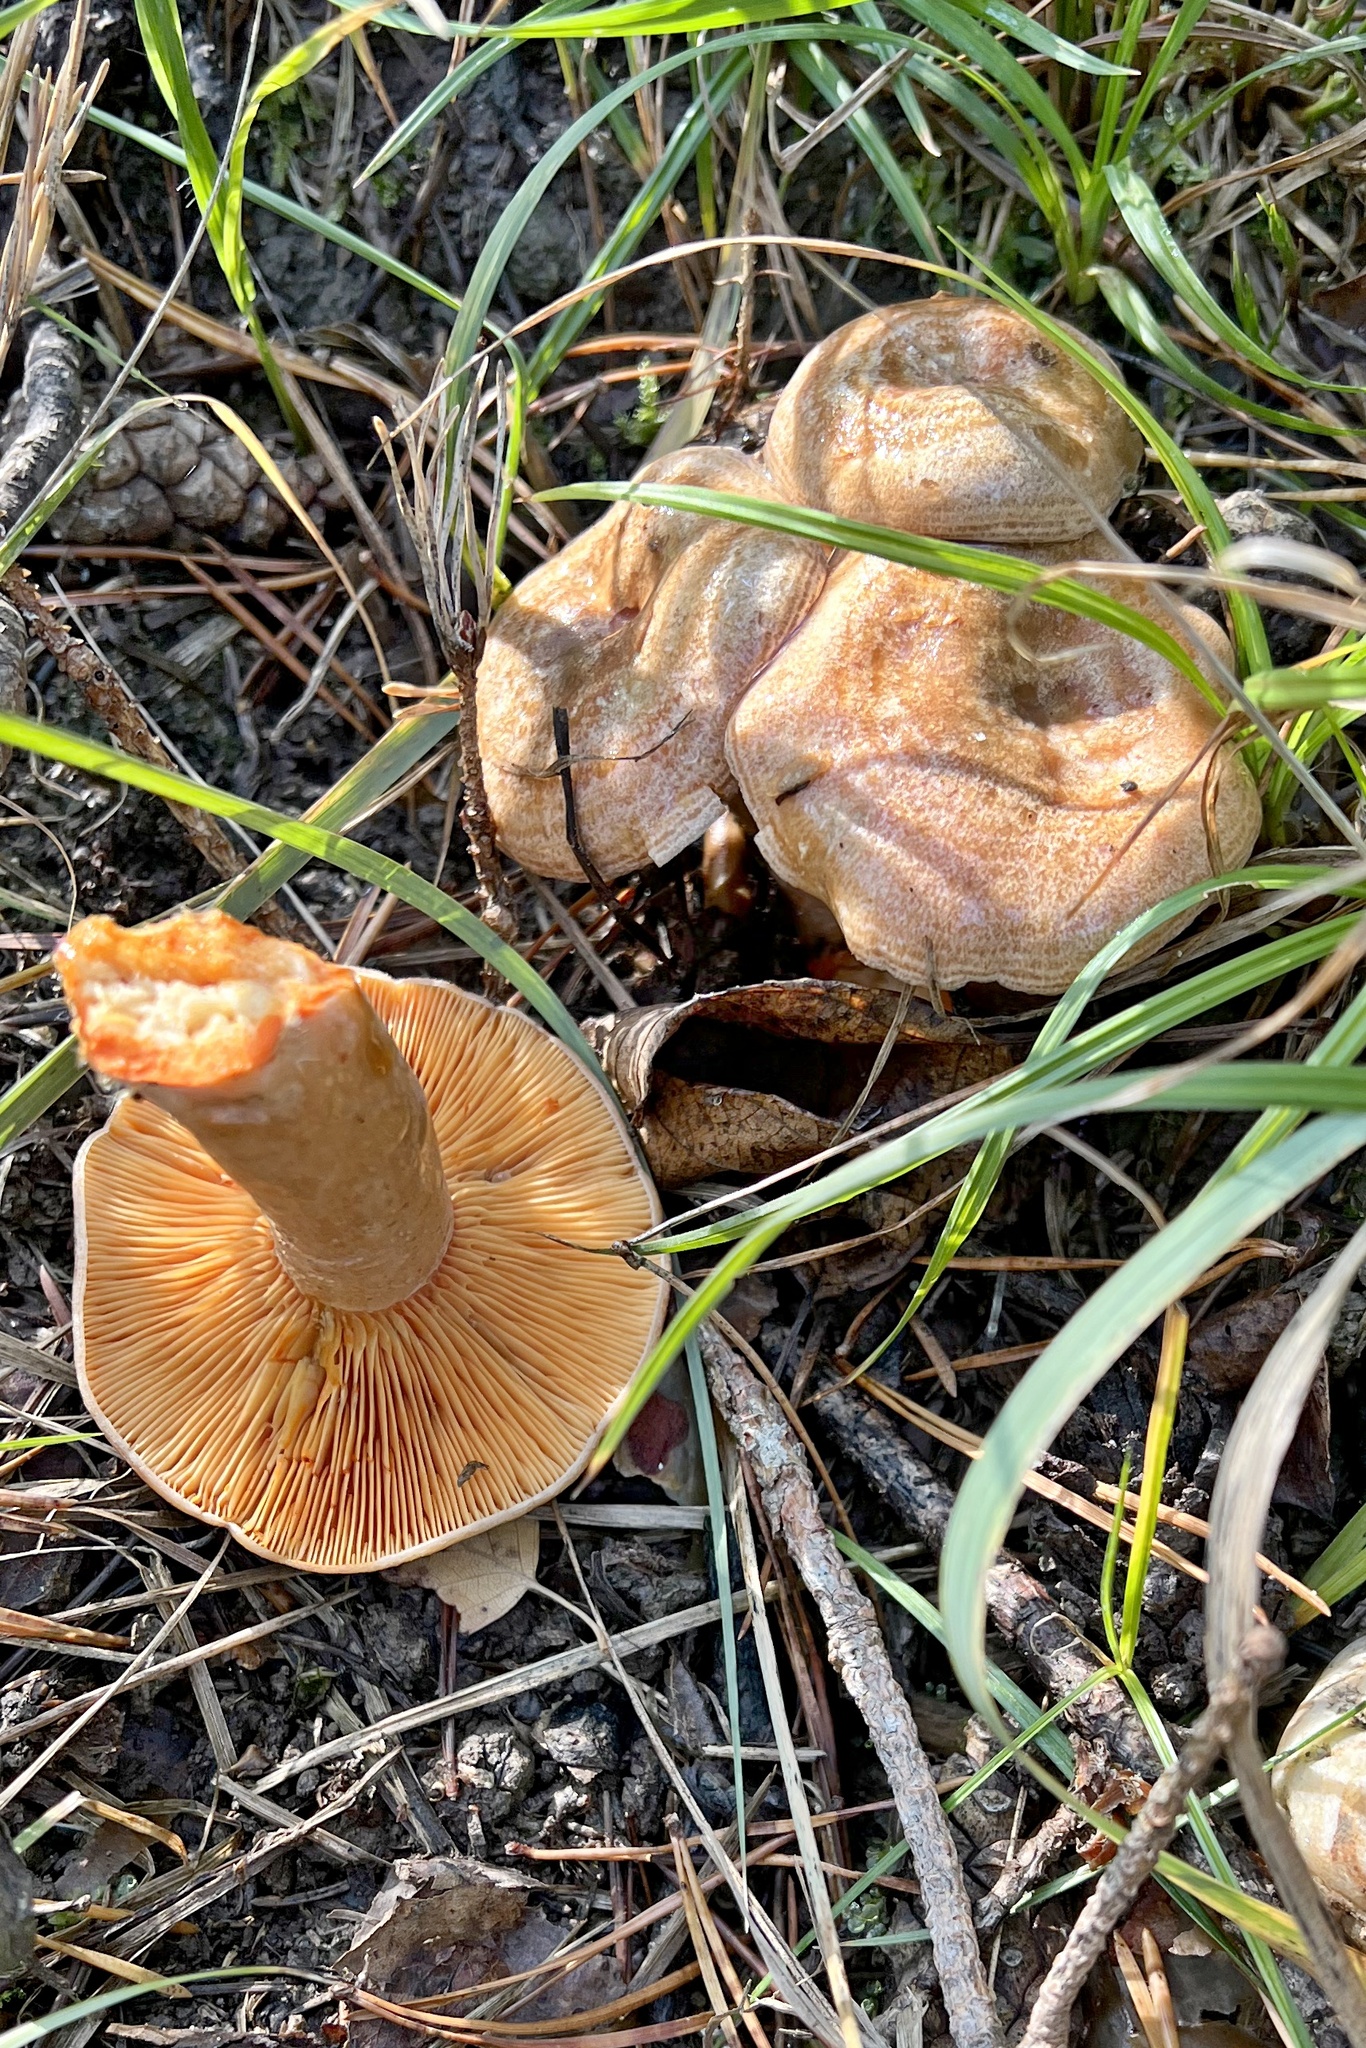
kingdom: Fungi
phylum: Basidiomycota
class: Agaricomycetes
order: Russulales
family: Russulaceae
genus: Lactarius
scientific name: Lactarius deliciosus
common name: Saffron milk-cap
